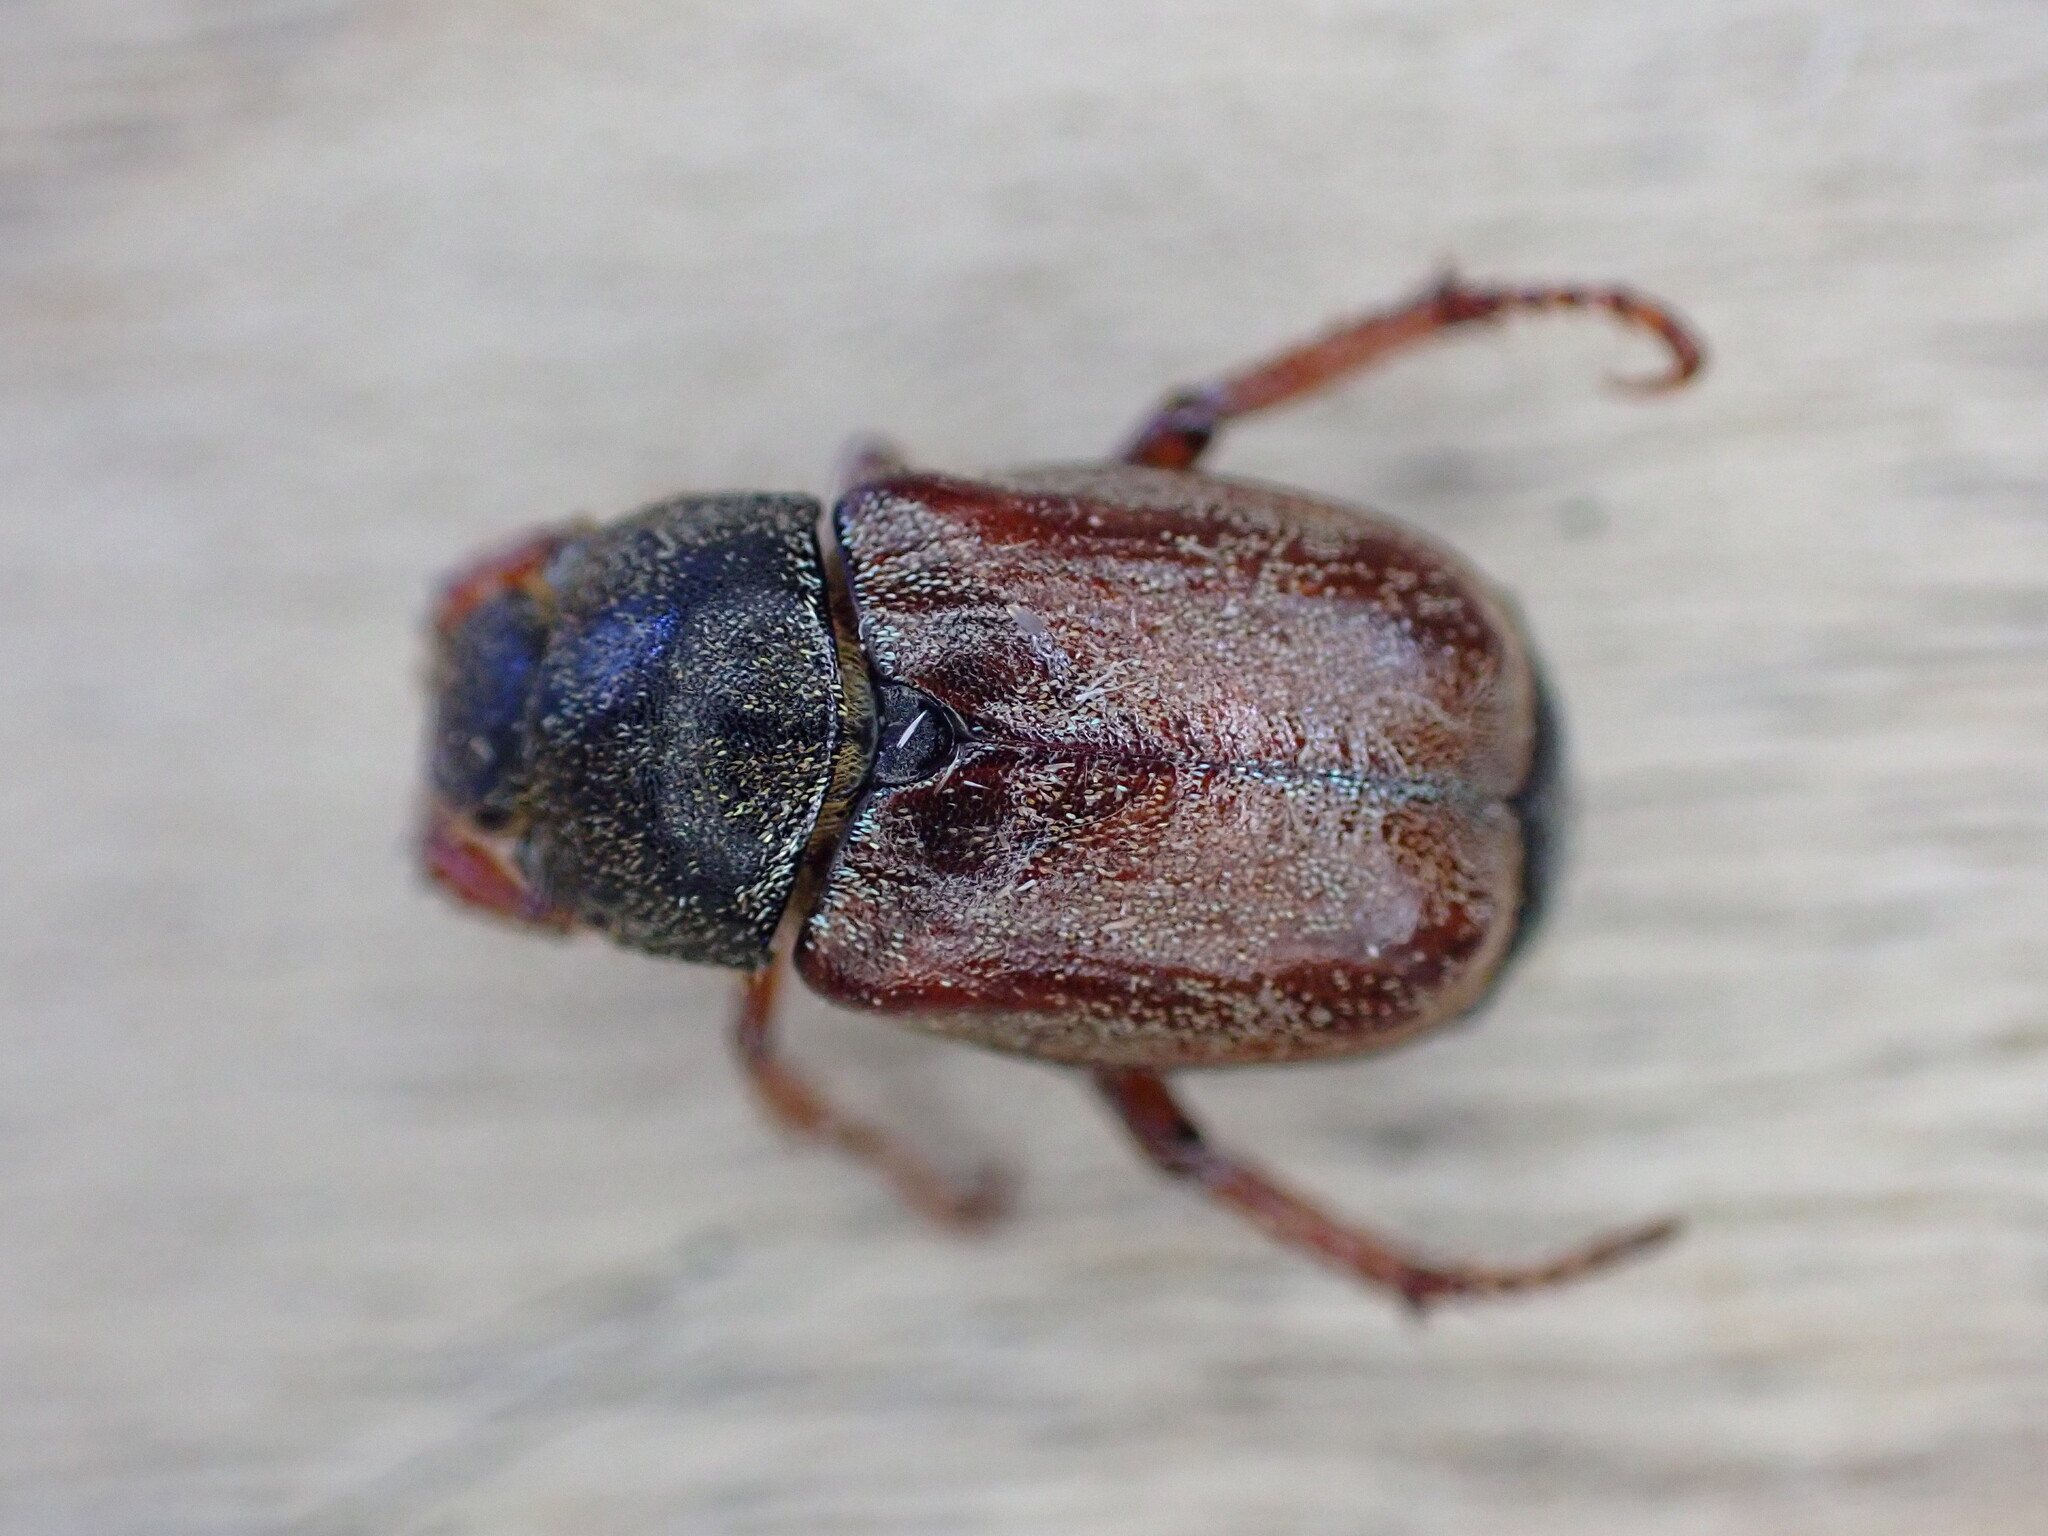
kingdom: Animalia
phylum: Arthropoda
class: Insecta
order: Coleoptera
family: Scarabaeidae
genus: Hoplia
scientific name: Hoplia philanthus
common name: Welsh chafer
